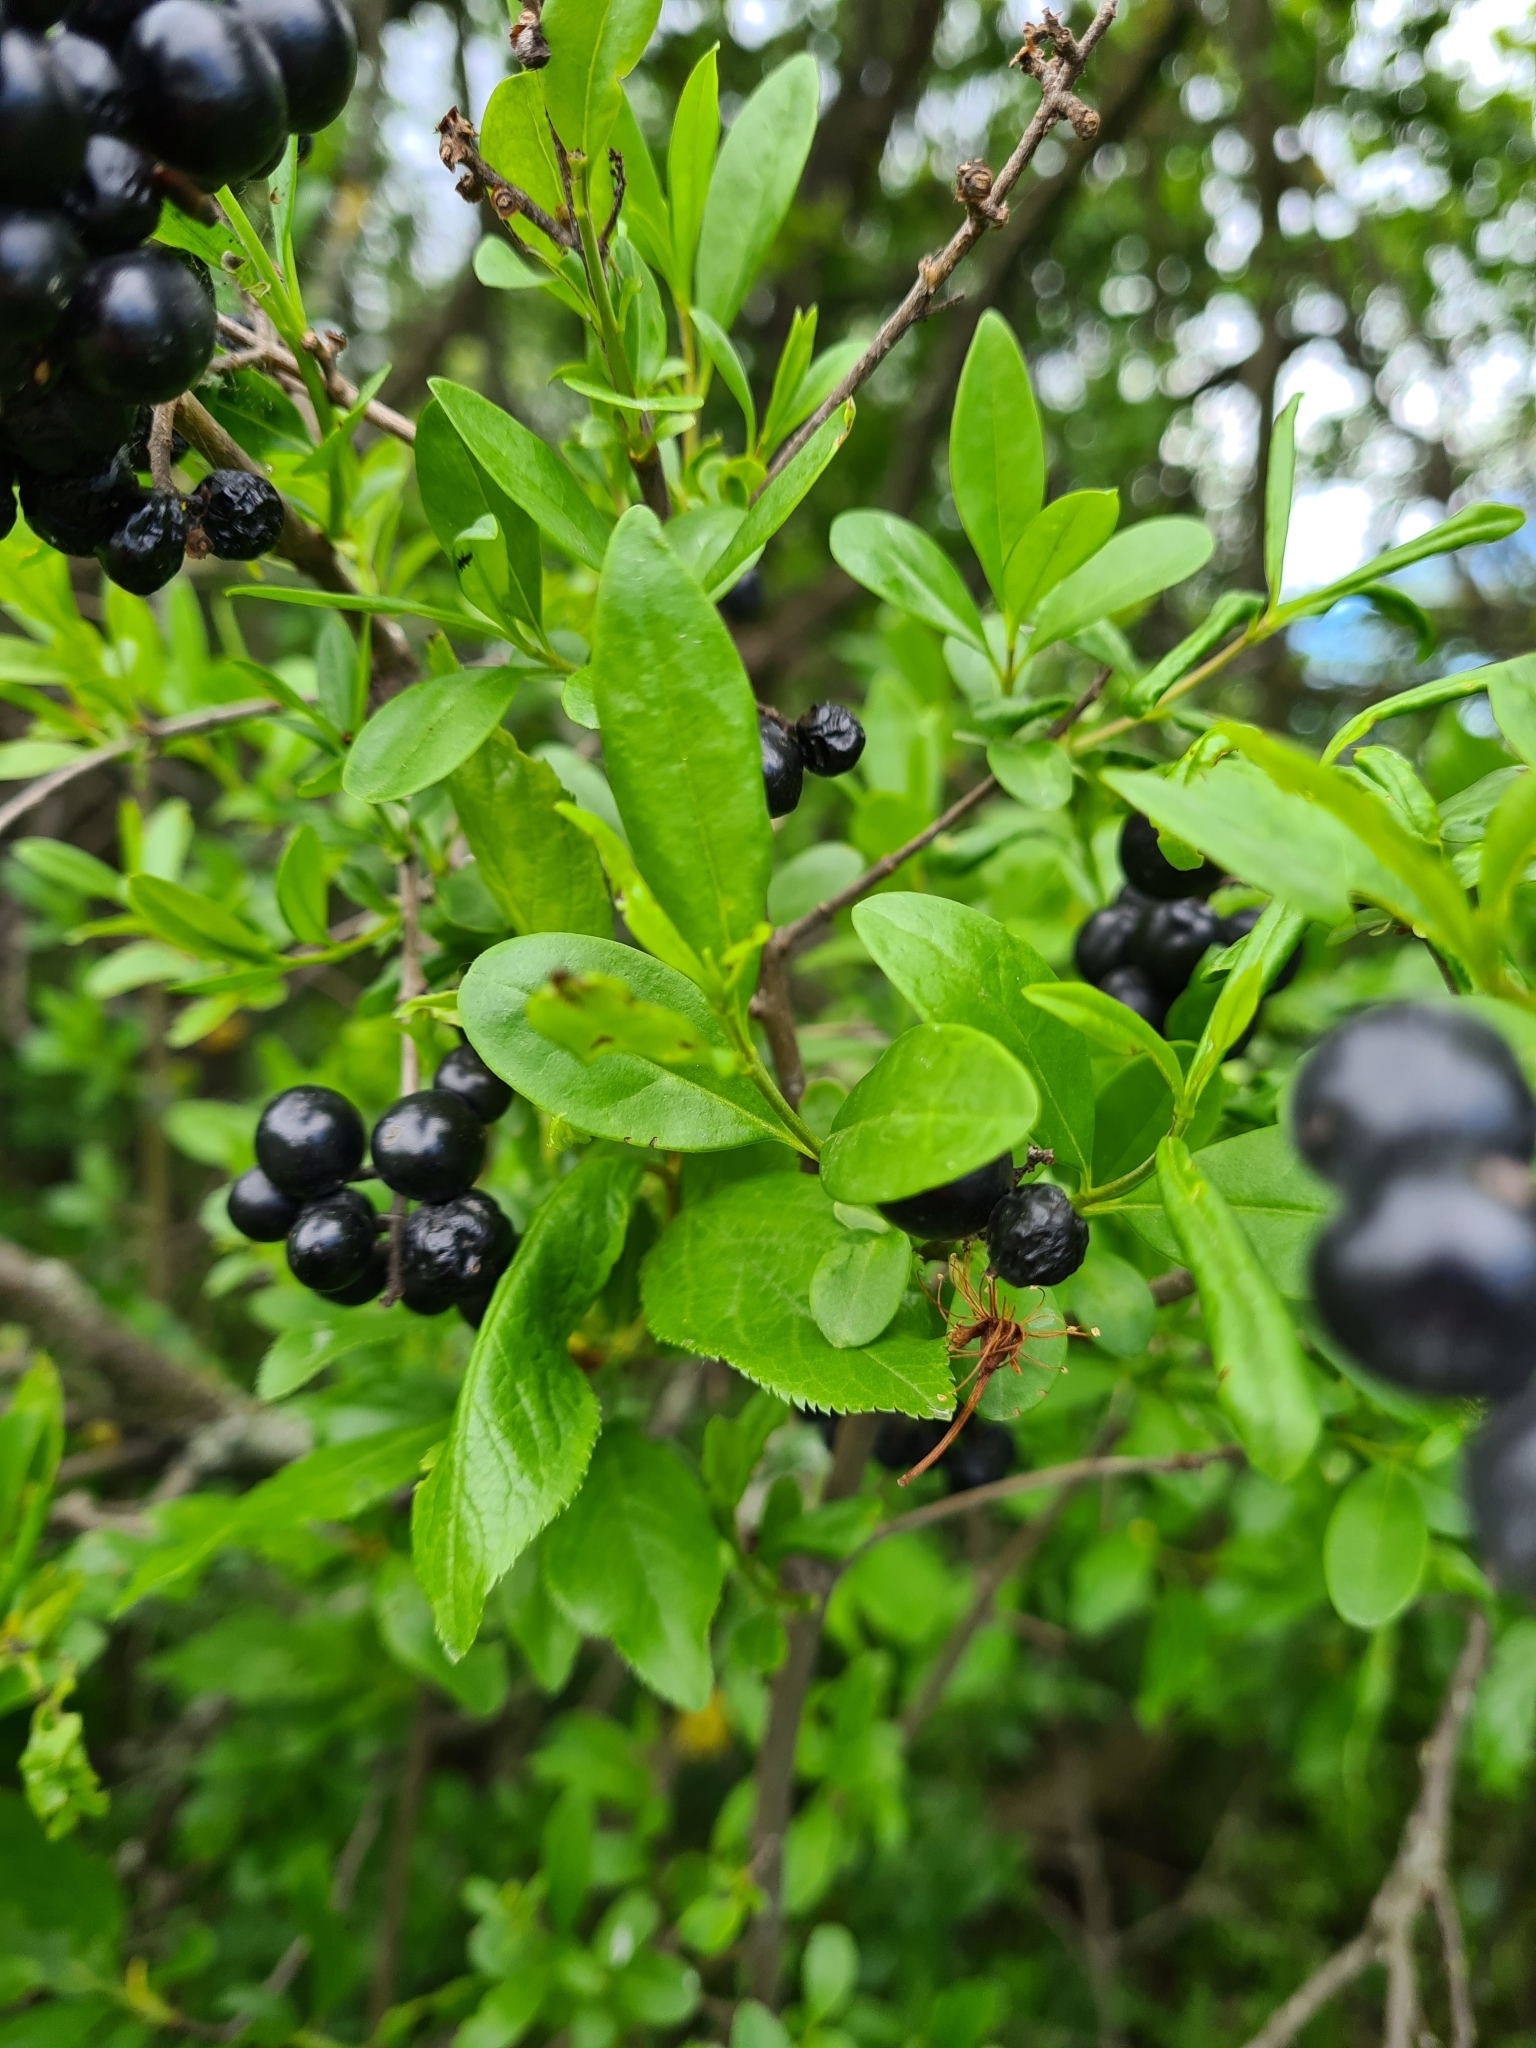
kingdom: Plantae
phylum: Tracheophyta
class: Magnoliopsida
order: Lamiales
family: Oleaceae
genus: Ligustrum
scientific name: Ligustrum vulgare
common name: Wild privet
